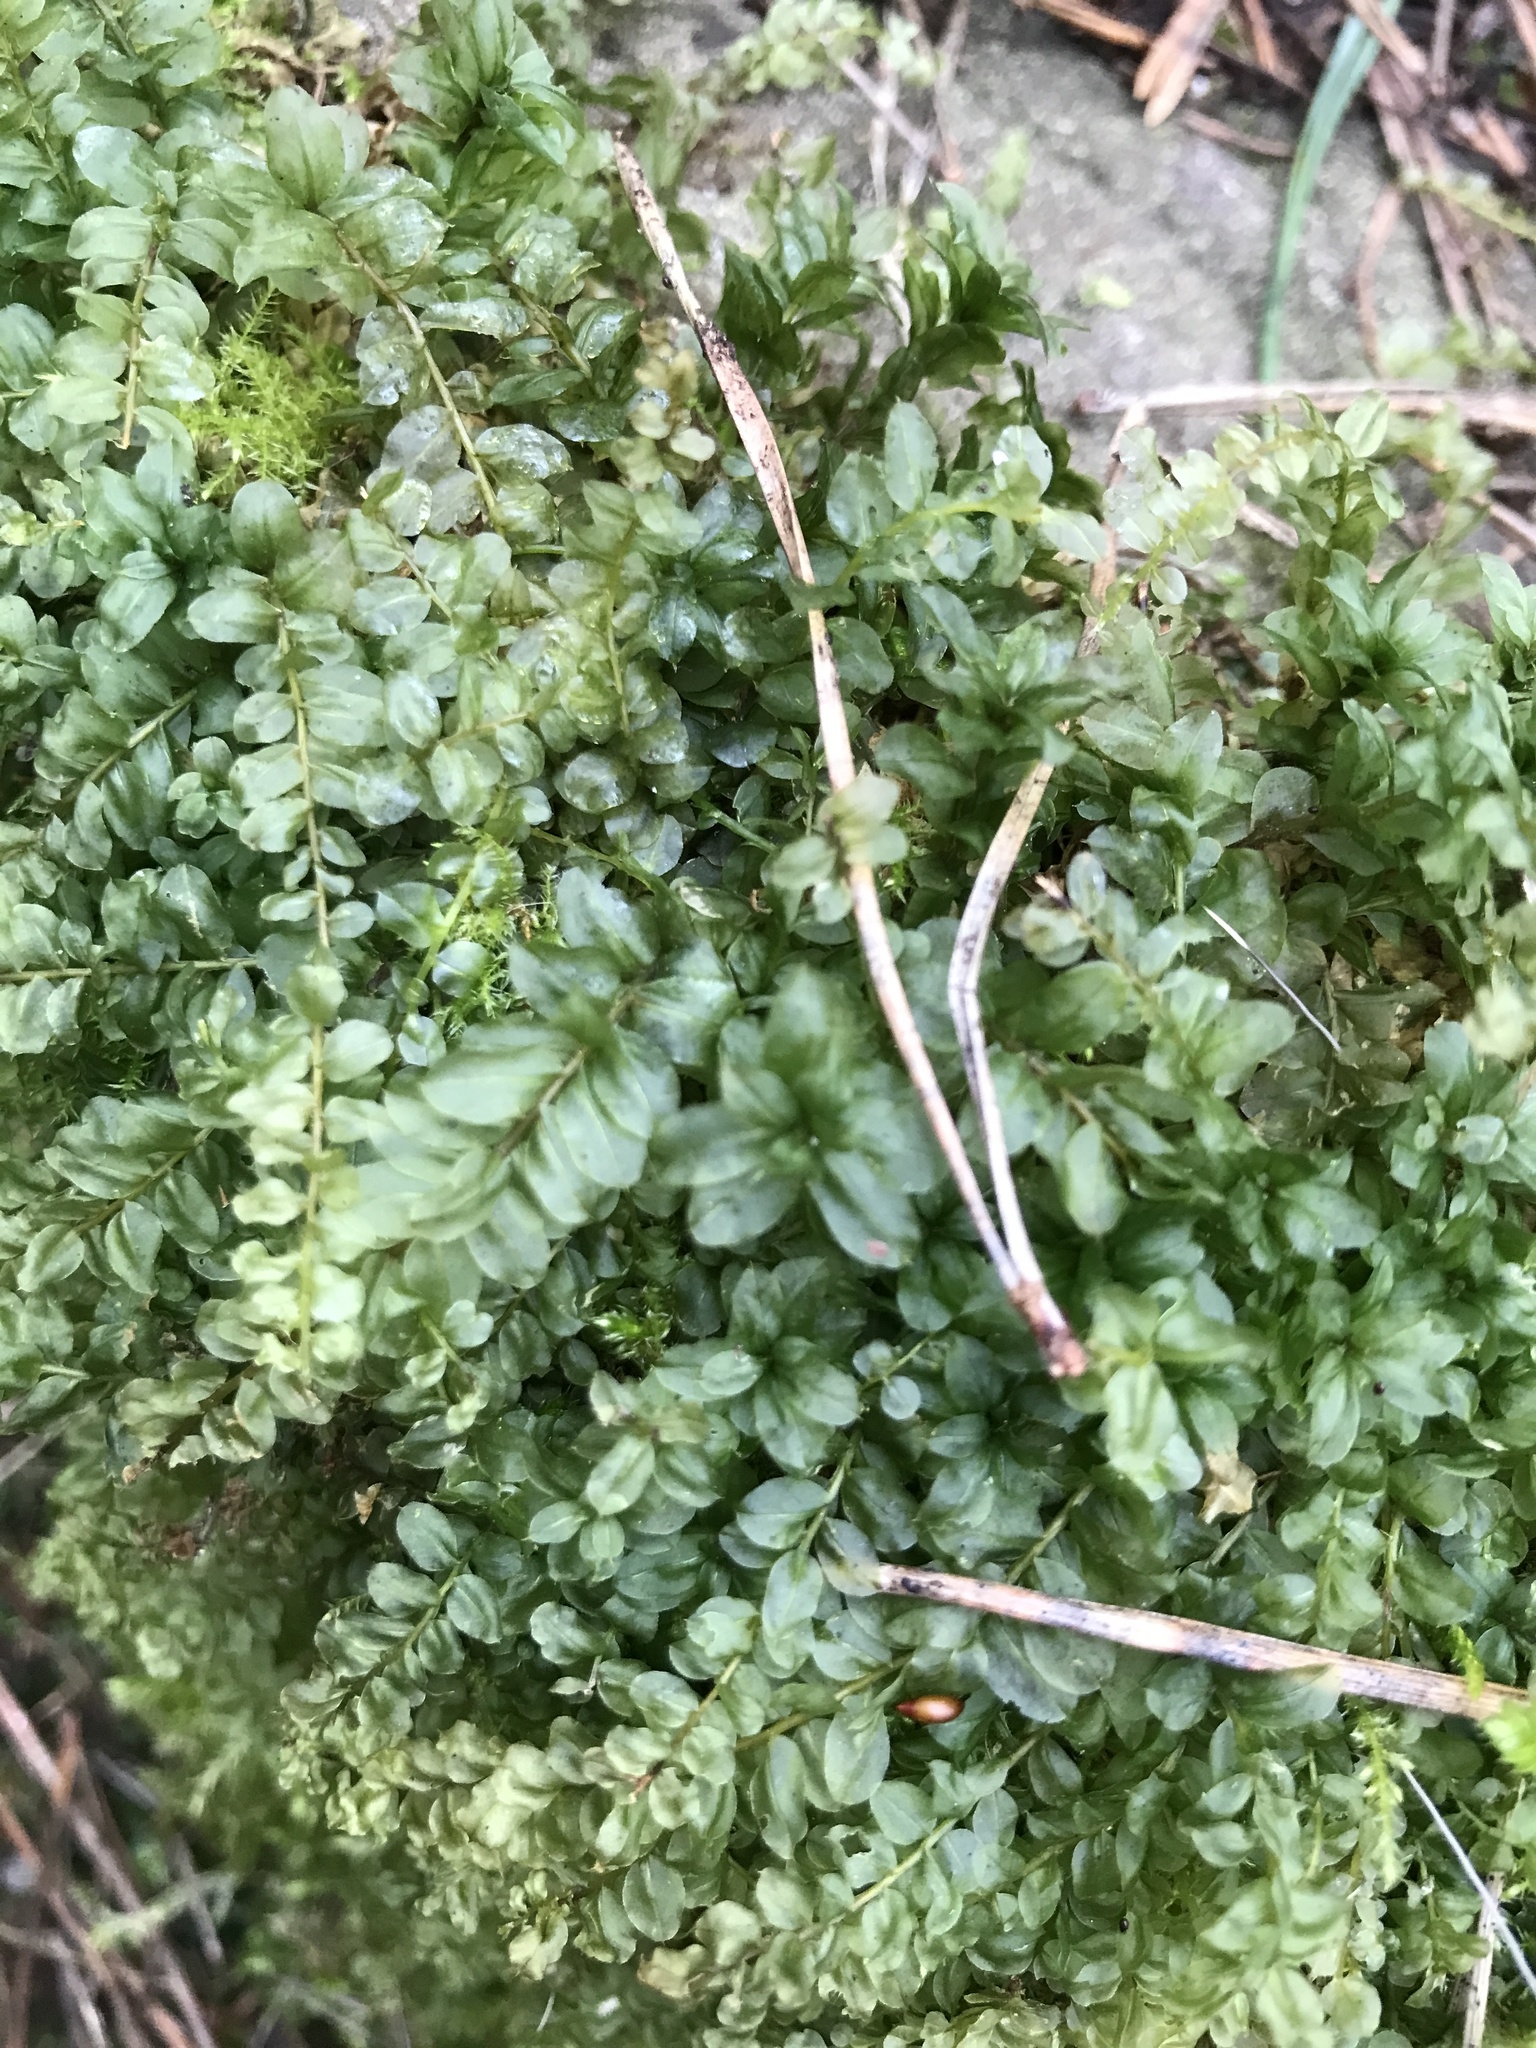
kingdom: Plantae
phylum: Bryophyta
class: Bryopsida
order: Bryales
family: Mniaceae
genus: Plagiomnium
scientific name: Plagiomnium affine
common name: Many-fruited thyme-moss
